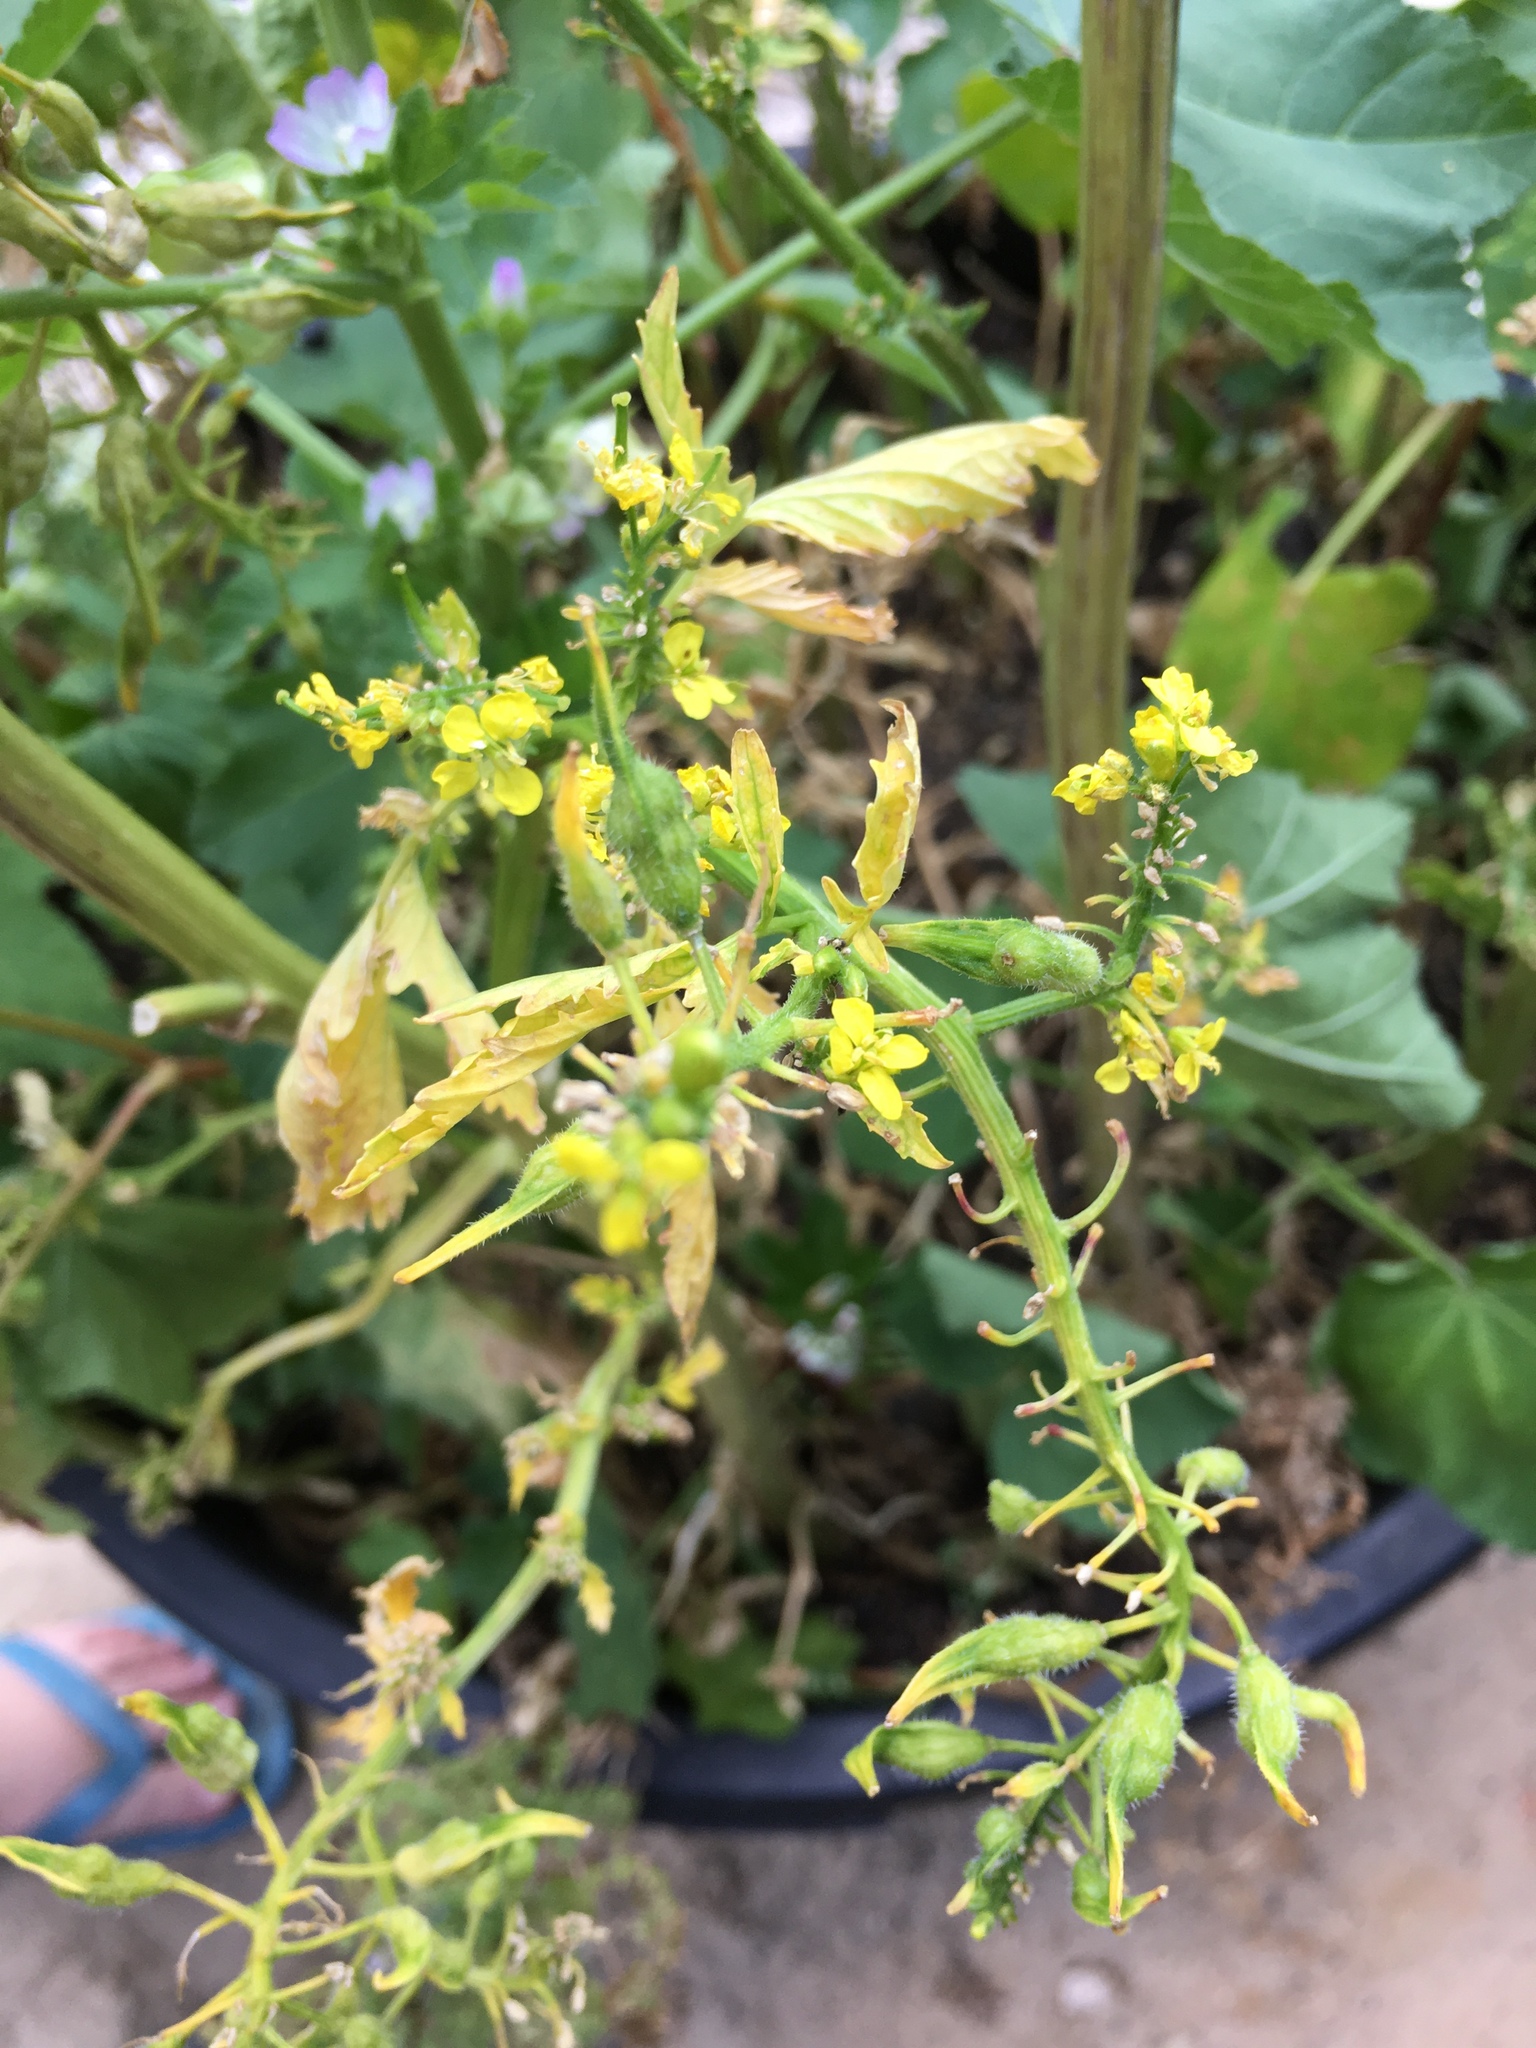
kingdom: Plantae
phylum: Tracheophyta
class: Magnoliopsida
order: Brassicales
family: Brassicaceae
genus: Sinapis
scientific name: Sinapis alba
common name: White mustard
